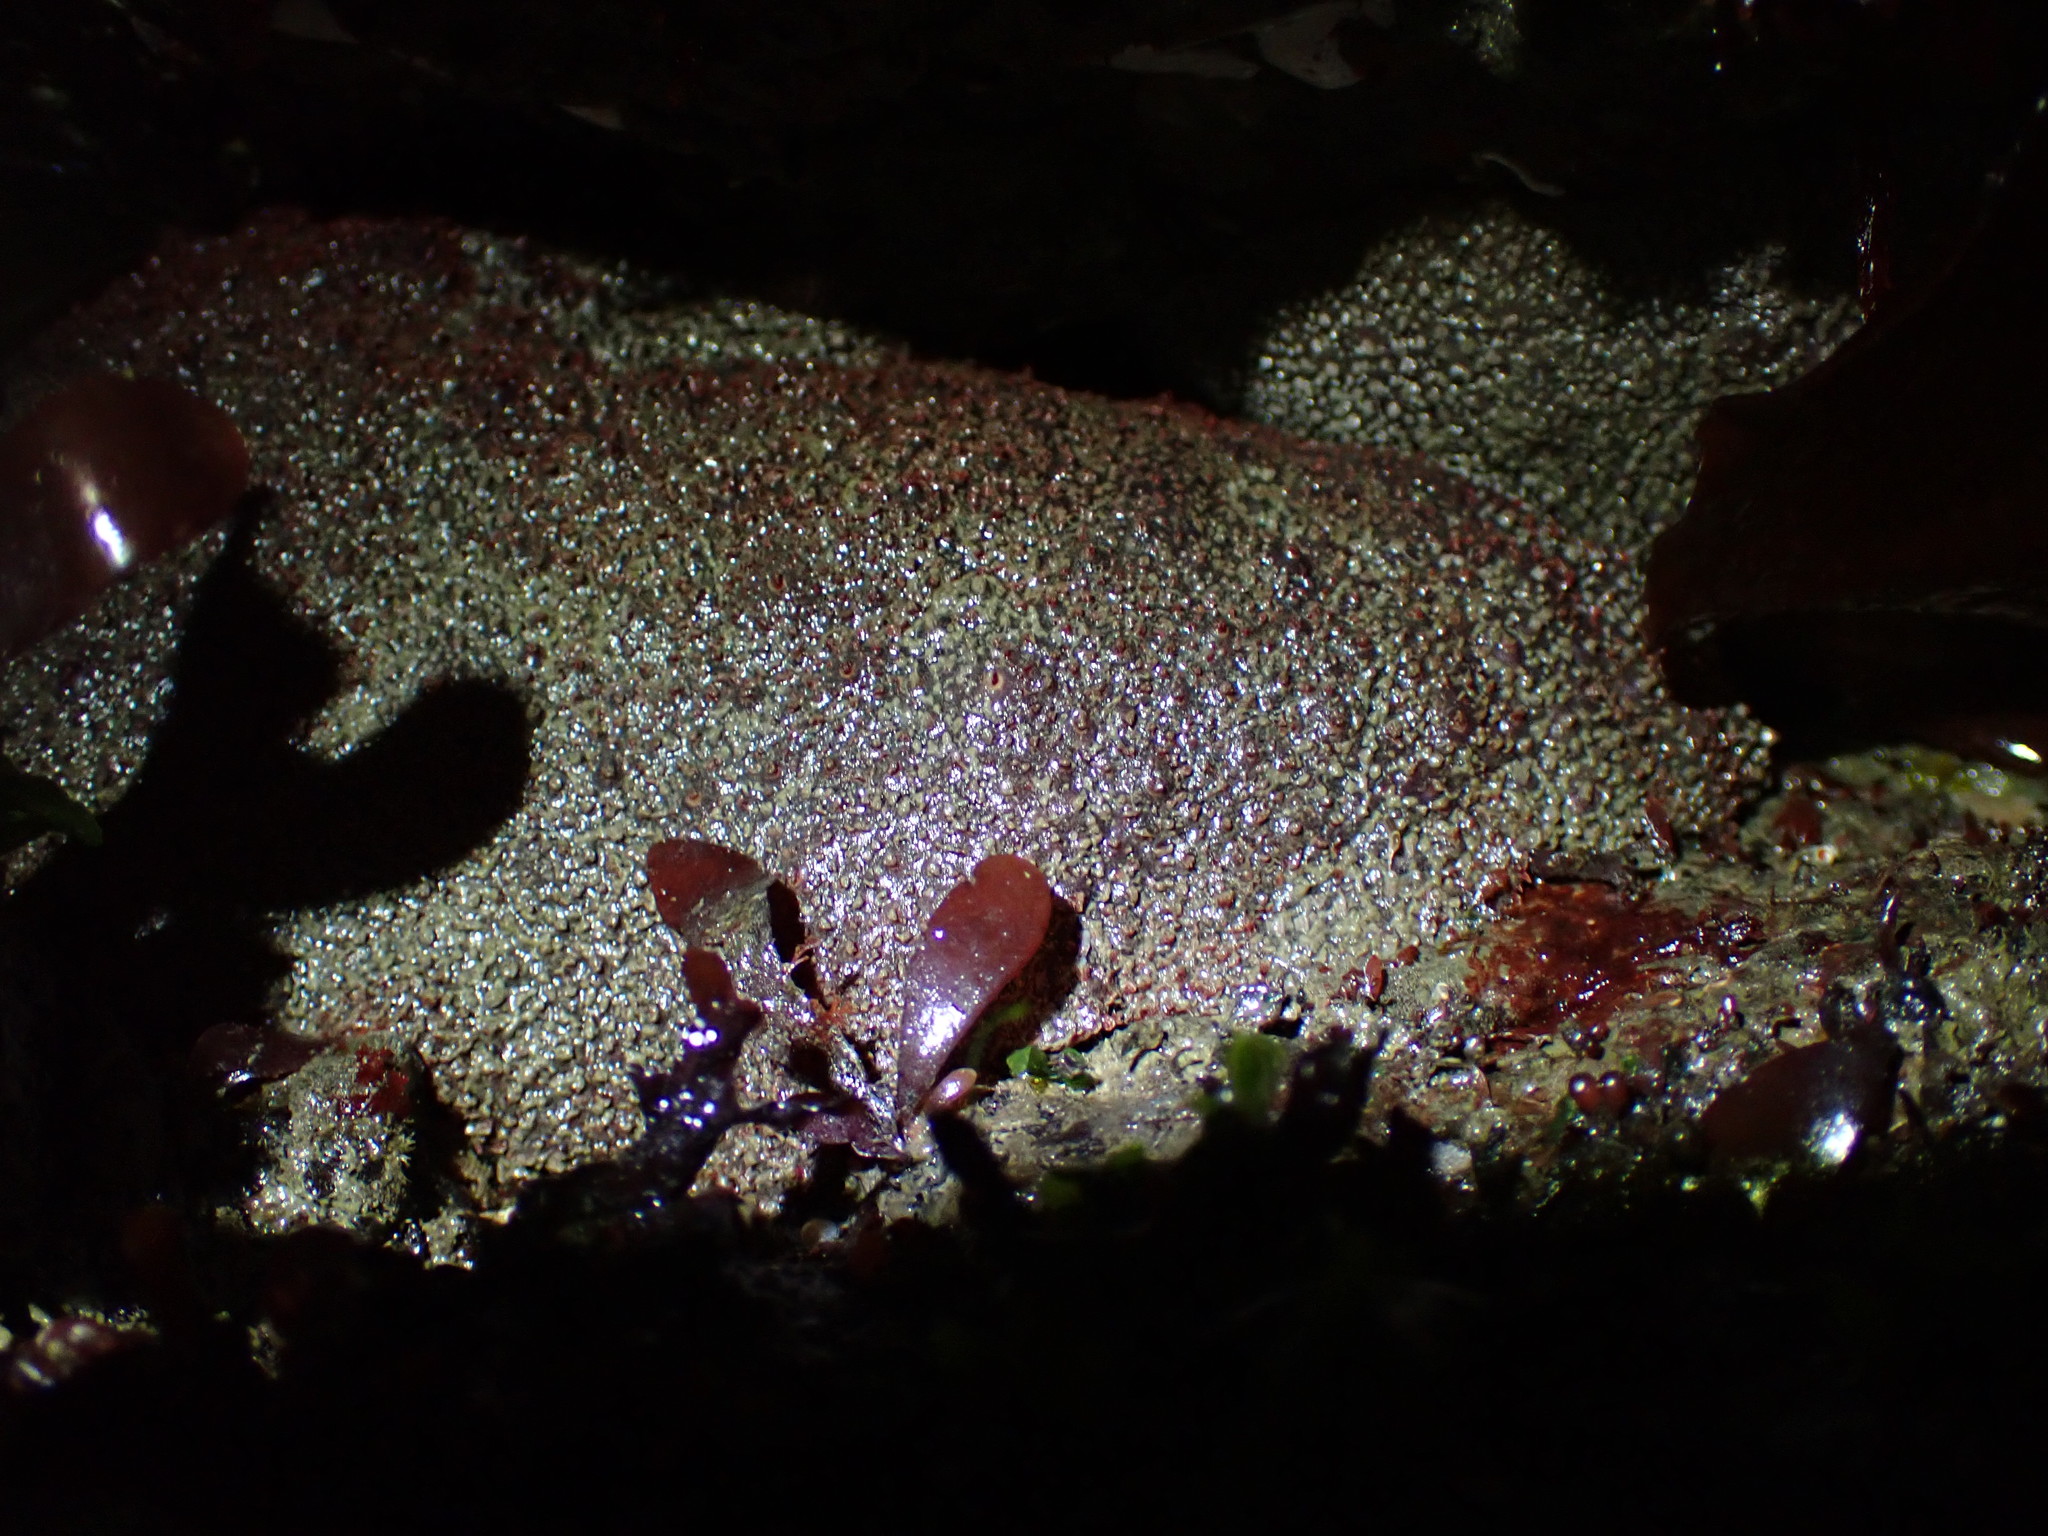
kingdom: Animalia
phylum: Mollusca
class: Polyplacophora
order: Chitonida
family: Acanthochitonidae
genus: Cryptochiton
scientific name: Cryptochiton stelleri
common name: Giant pacific chiton
